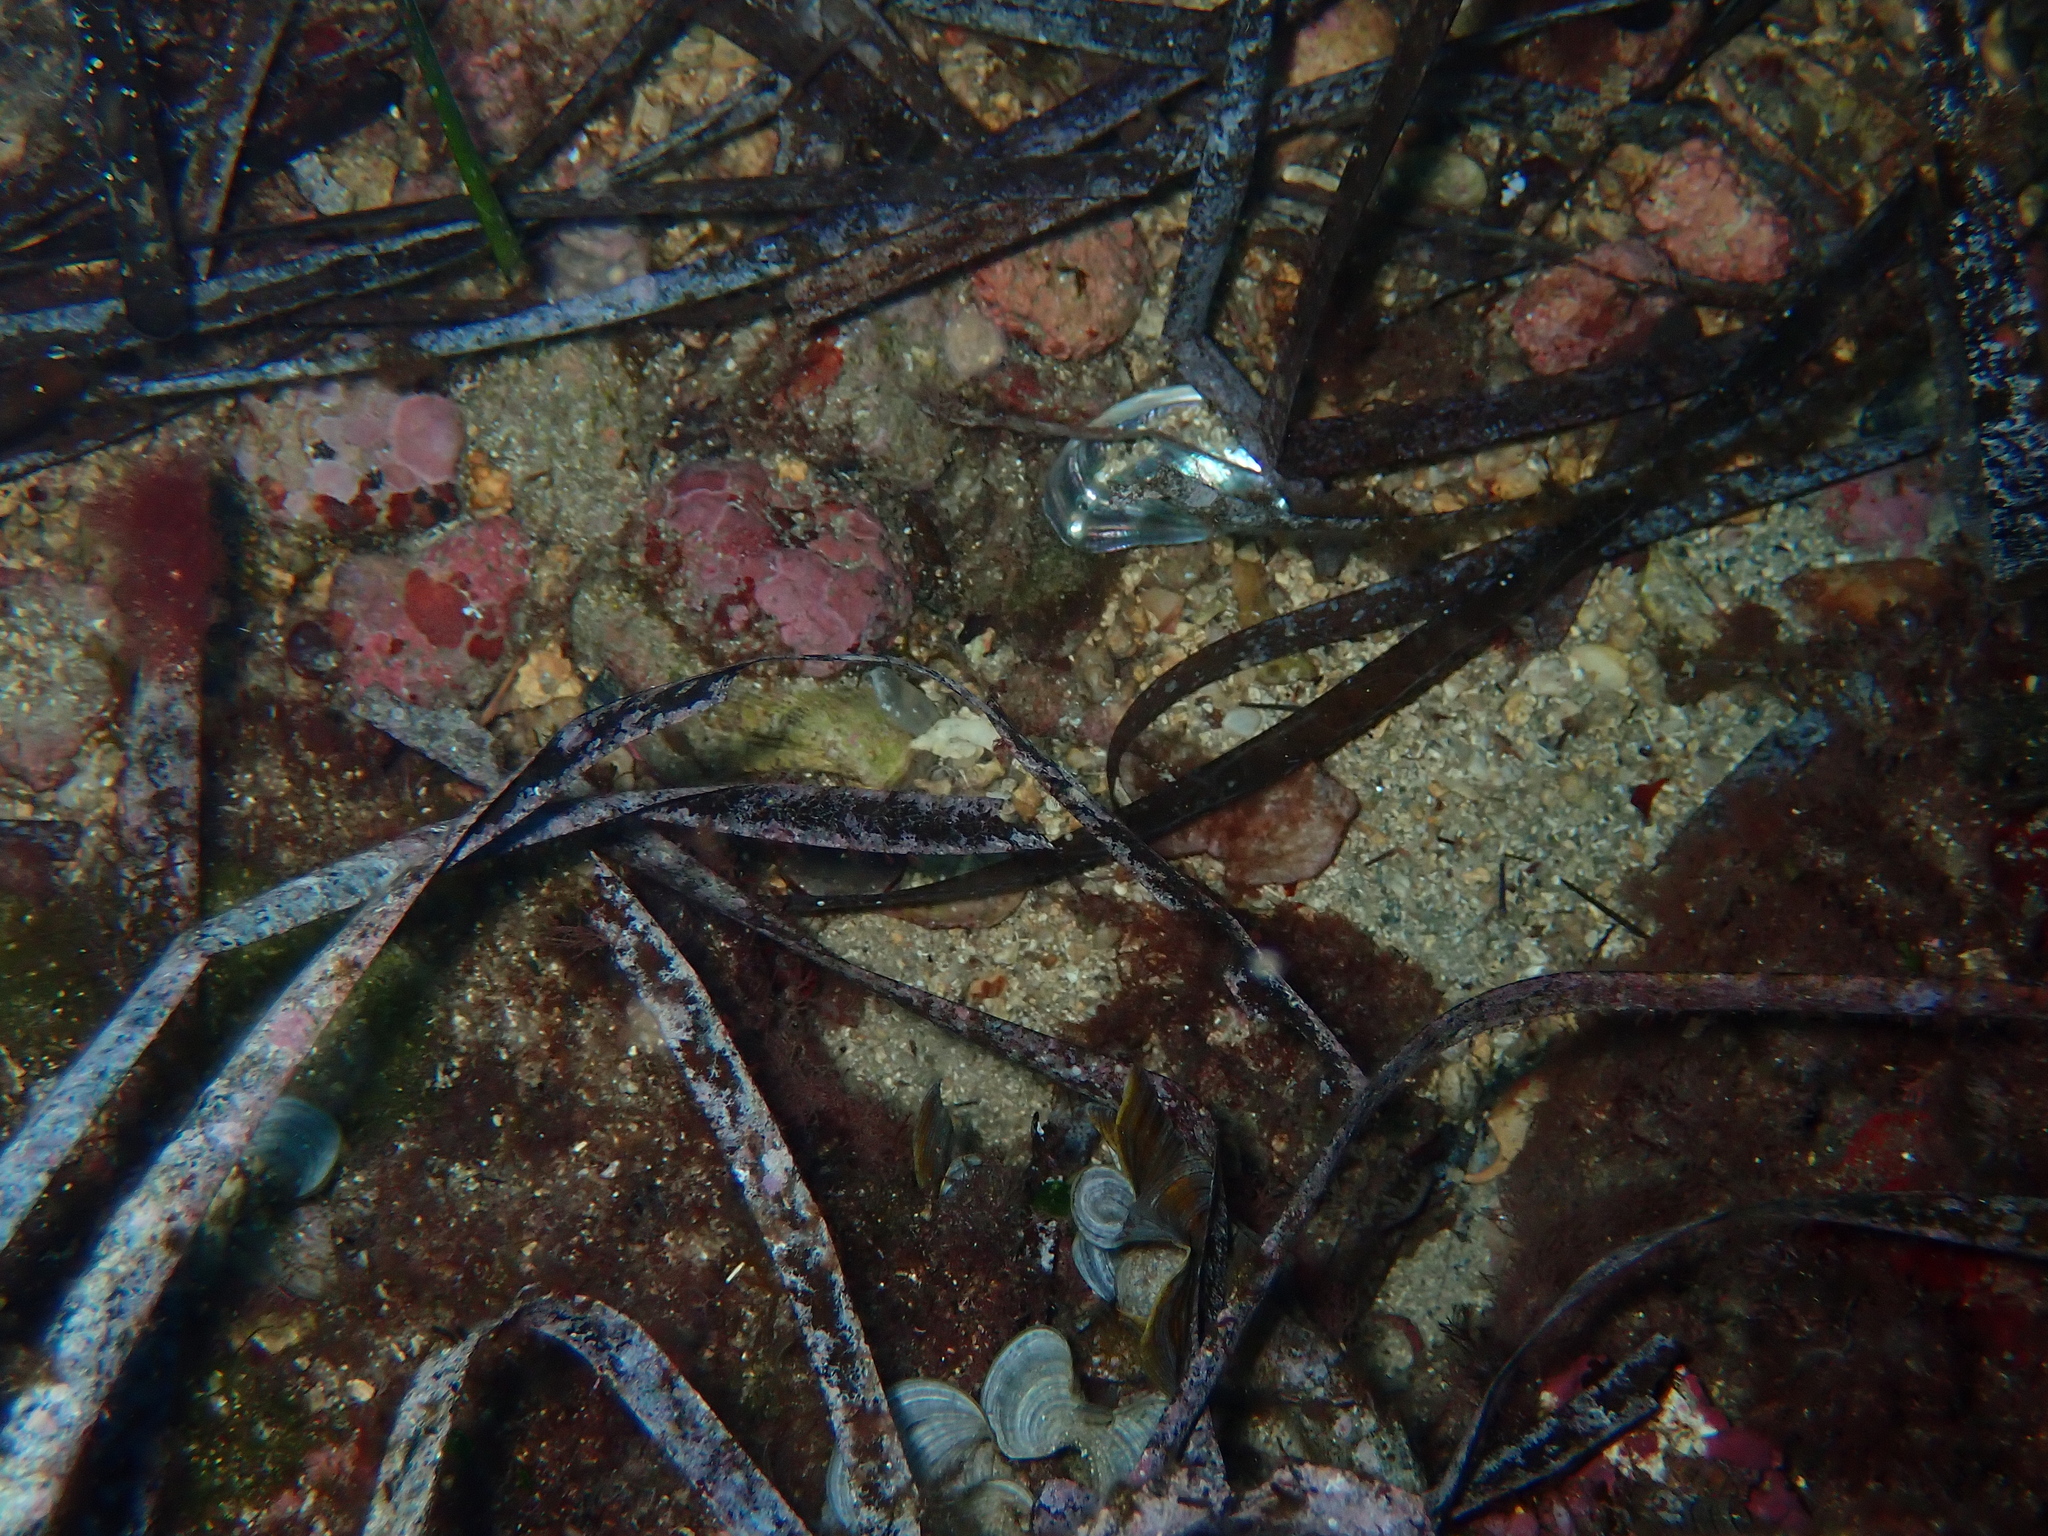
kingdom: Animalia
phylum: Mollusca
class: Gastropoda
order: Lepetellida
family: Haliotidae
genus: Haliotis
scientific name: Haliotis tuberculata
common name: Green ormer
